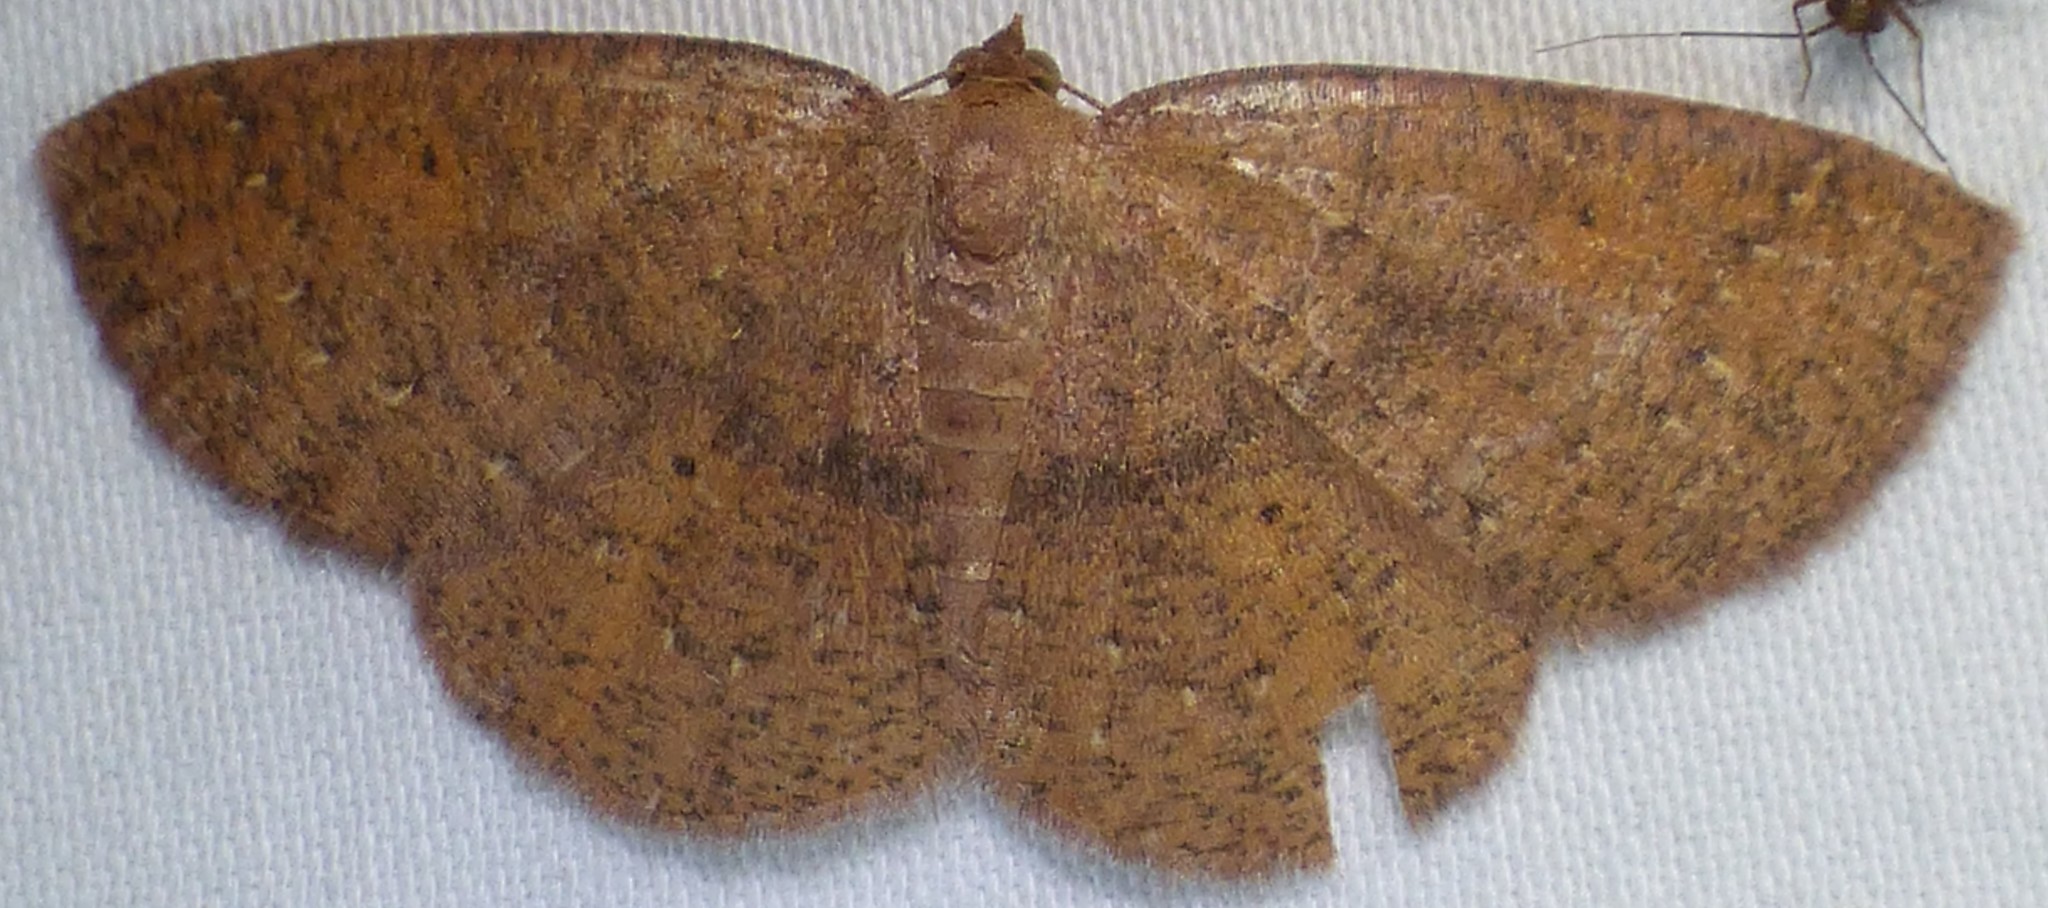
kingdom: Animalia
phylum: Arthropoda
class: Insecta
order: Lepidoptera
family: Geometridae
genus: Ilexia
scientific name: Ilexia intractata
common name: Black-dotted ruddy moth
